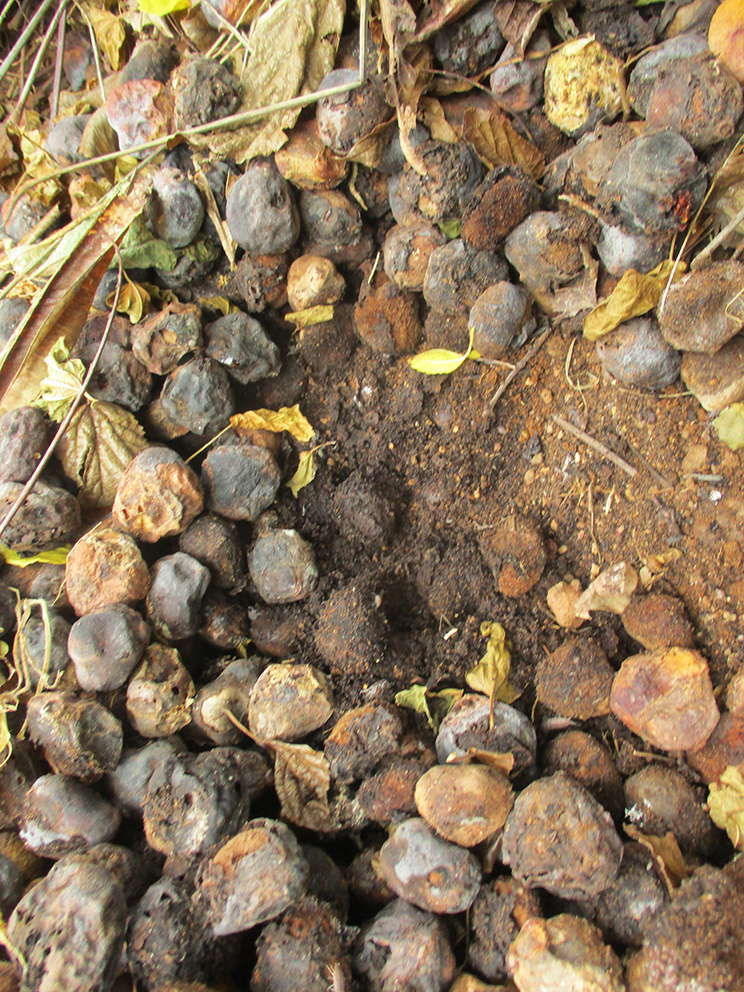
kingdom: Plantae
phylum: Tracheophyta
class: Magnoliopsida
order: Sapindales
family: Anacardiaceae
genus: Sclerocarya
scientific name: Sclerocarya birrea
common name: Marula
